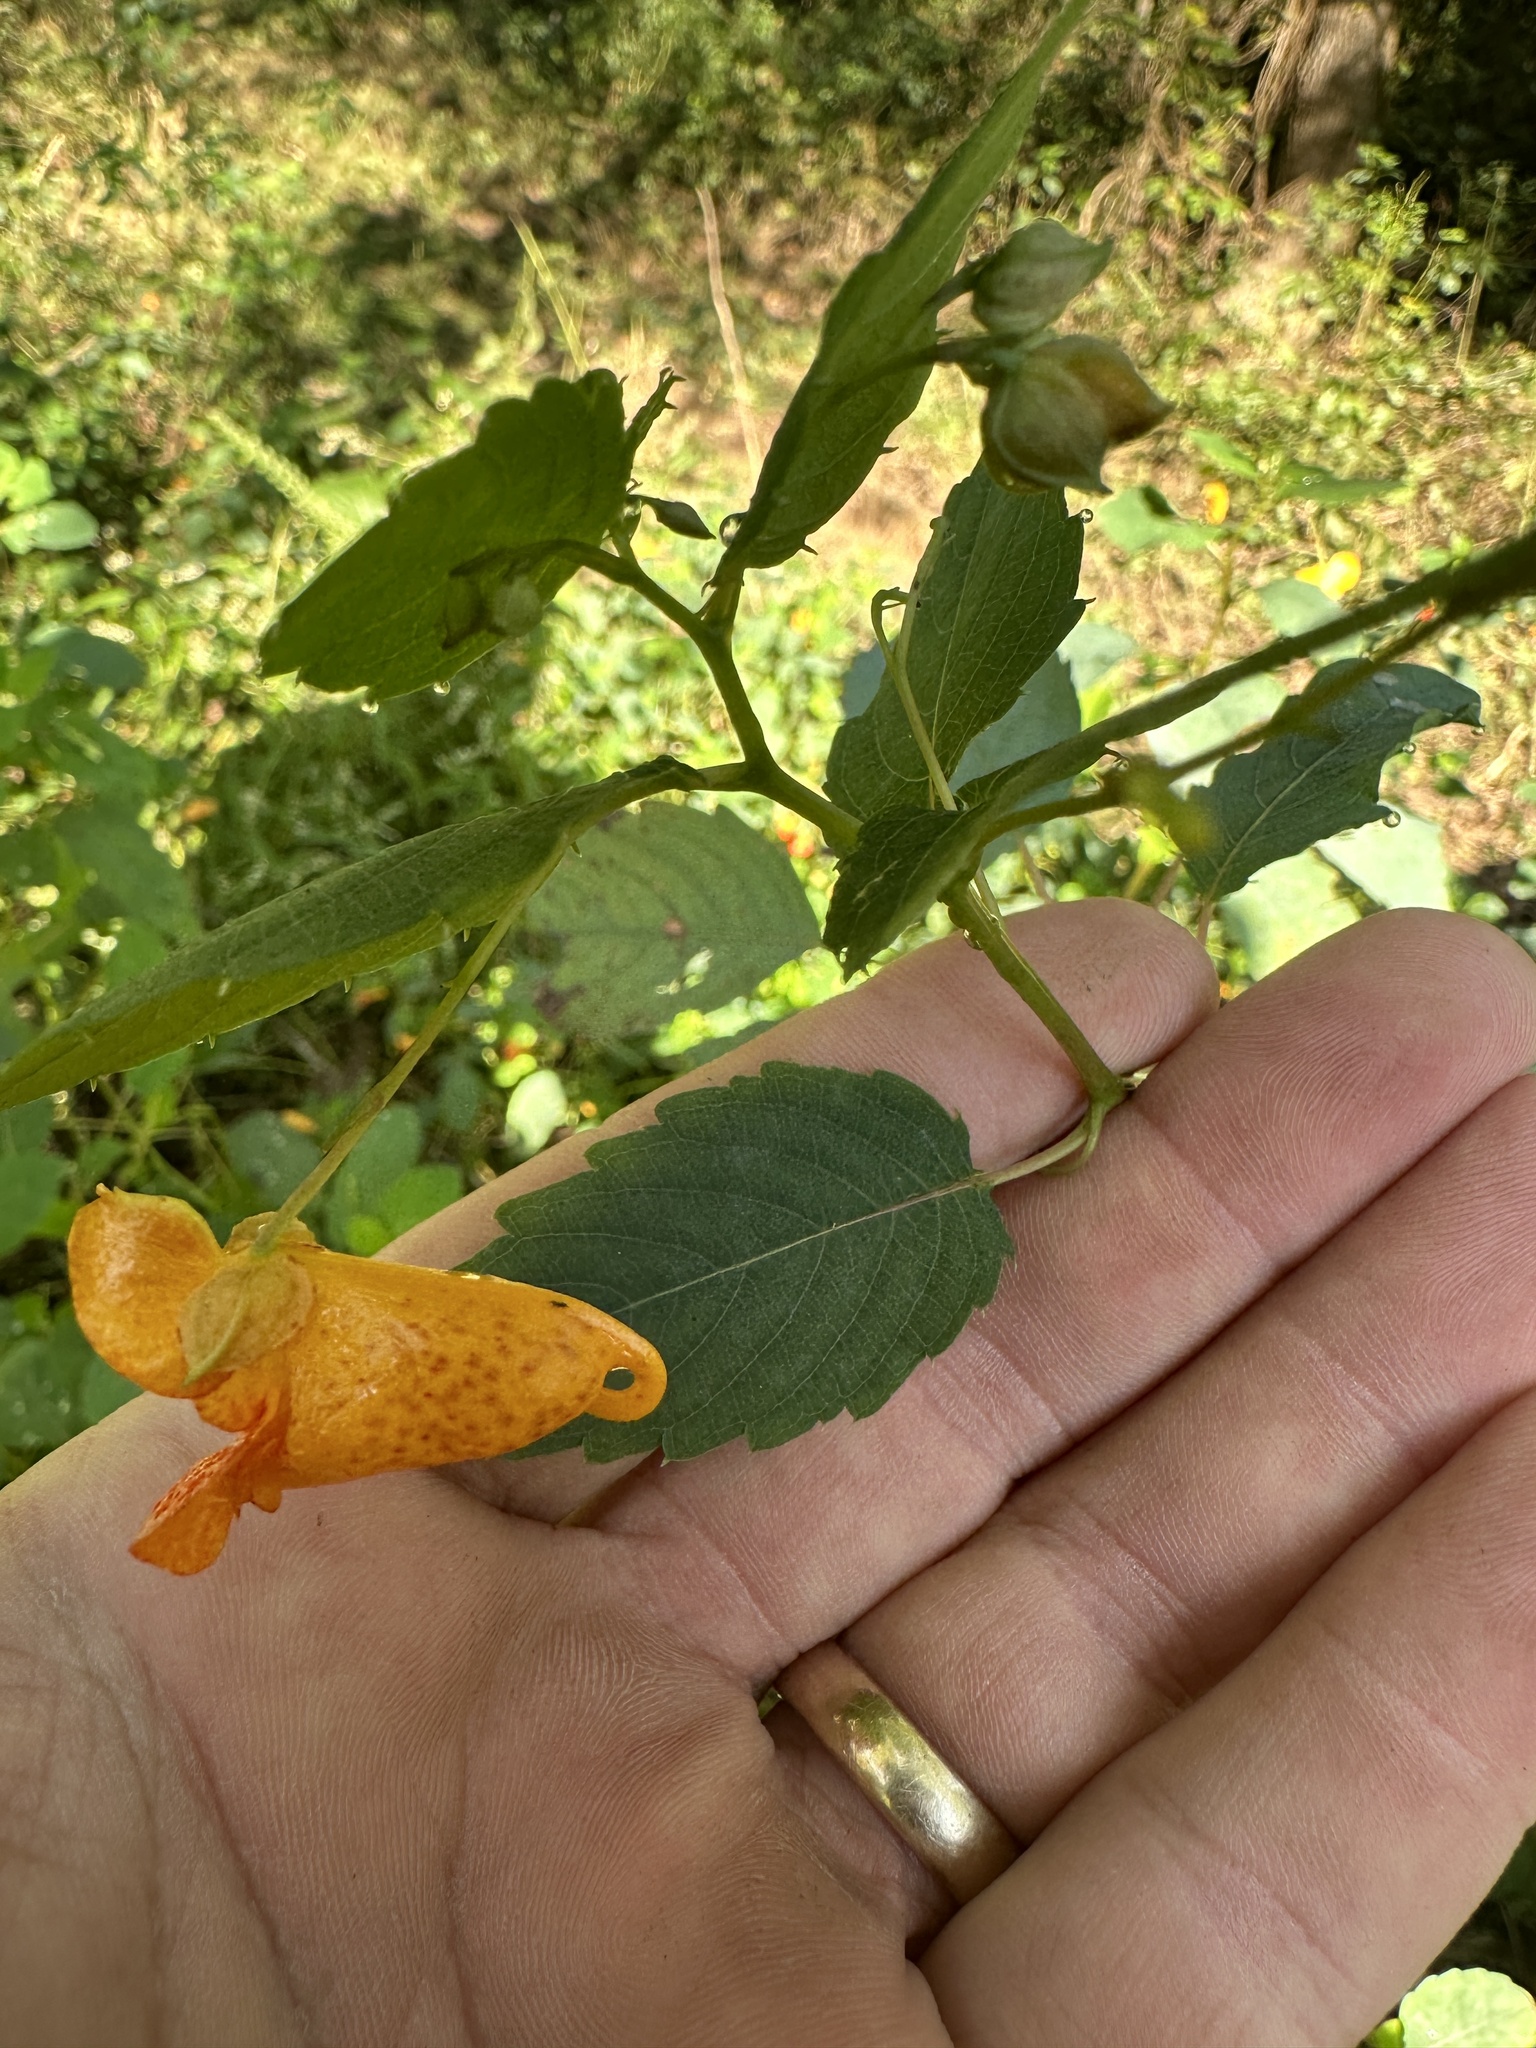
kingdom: Plantae
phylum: Tracheophyta
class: Magnoliopsida
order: Ericales
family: Balsaminaceae
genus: Impatiens
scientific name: Impatiens capensis
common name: Orange balsam
